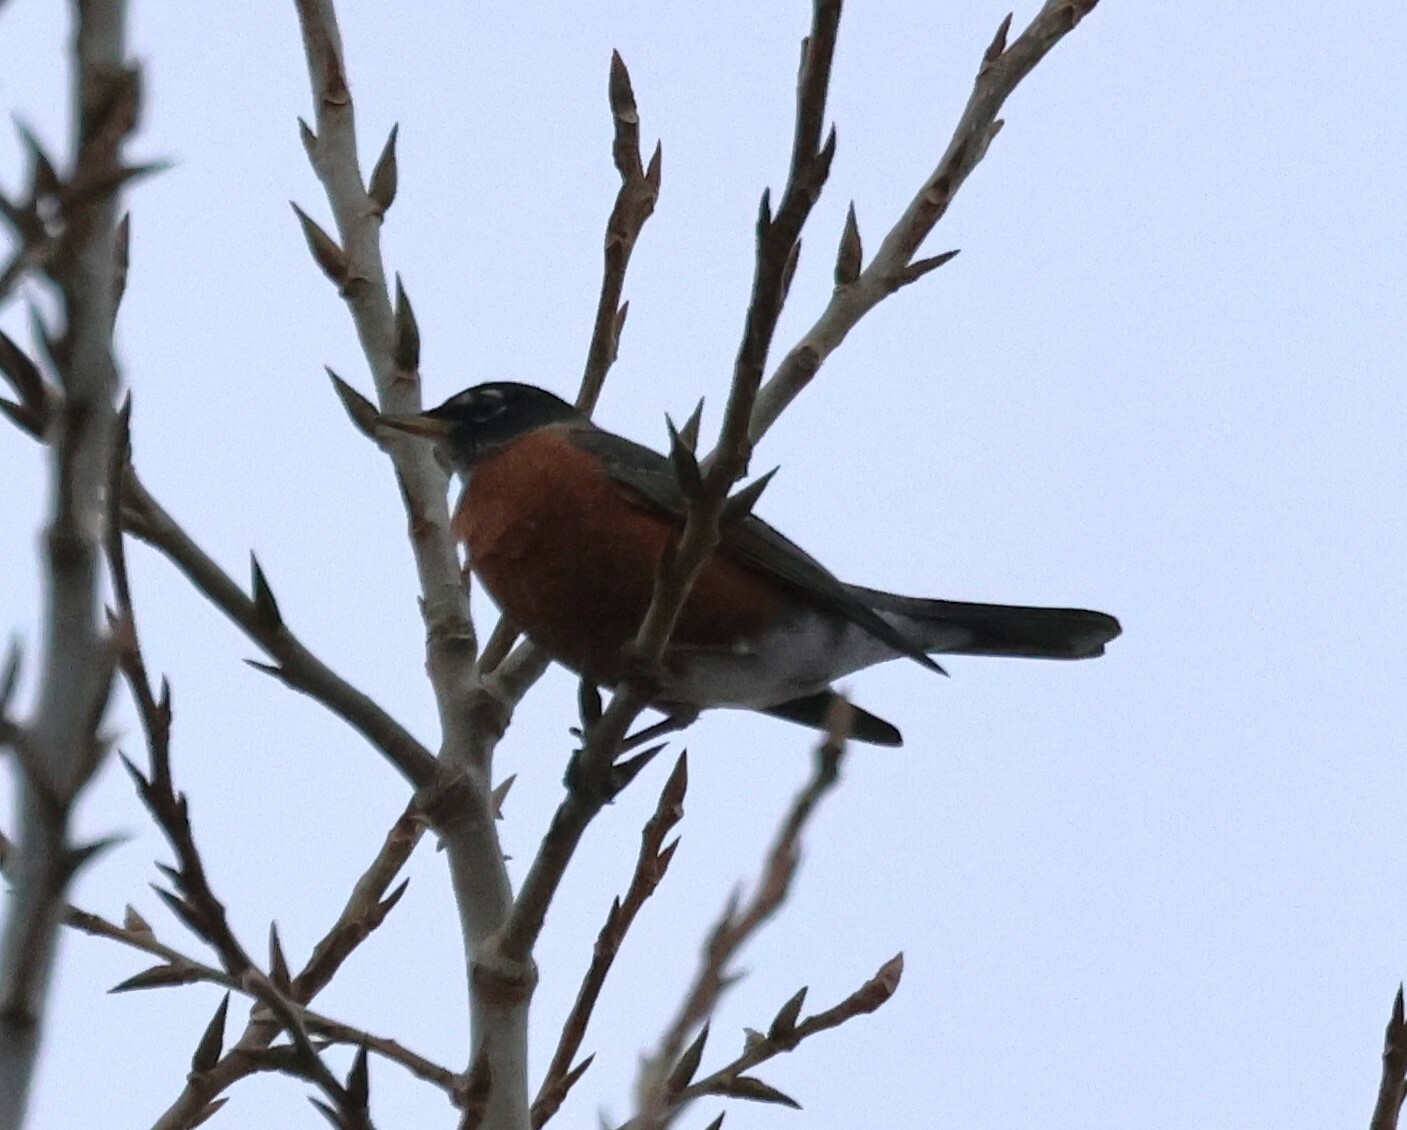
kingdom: Animalia
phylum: Chordata
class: Aves
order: Passeriformes
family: Turdidae
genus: Turdus
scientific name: Turdus migratorius
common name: American robin
